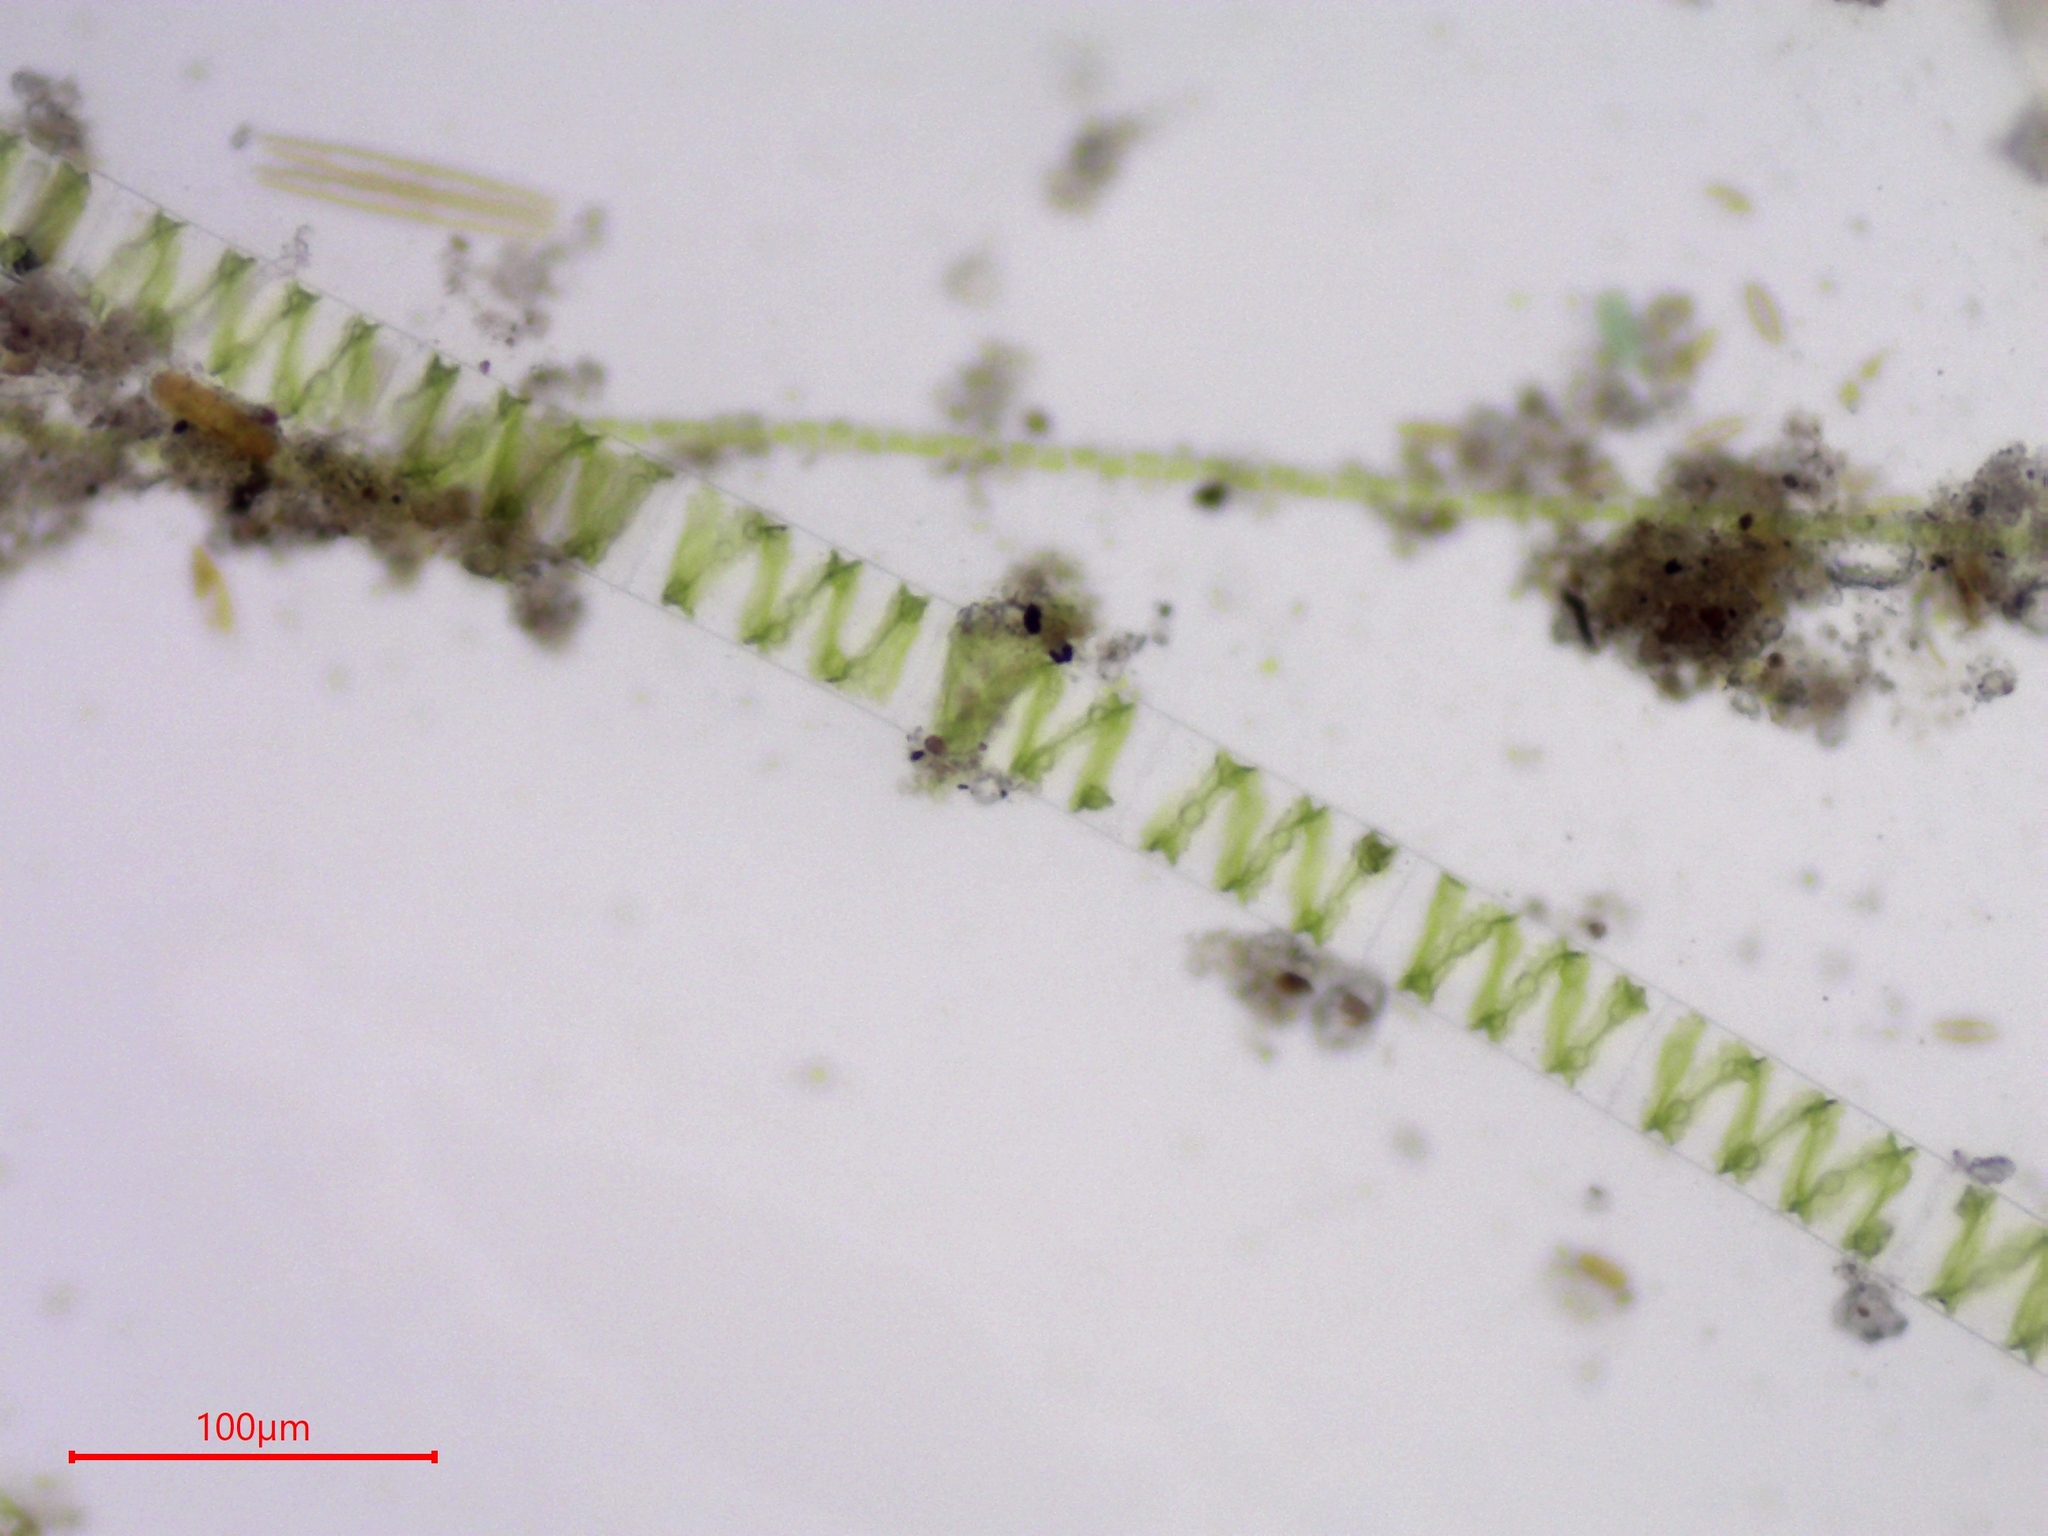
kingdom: Plantae
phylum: Charophyta
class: Zygnematophyceae
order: Zygnematales
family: Zygnemataceae
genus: Spirogyra
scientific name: Spirogyra
